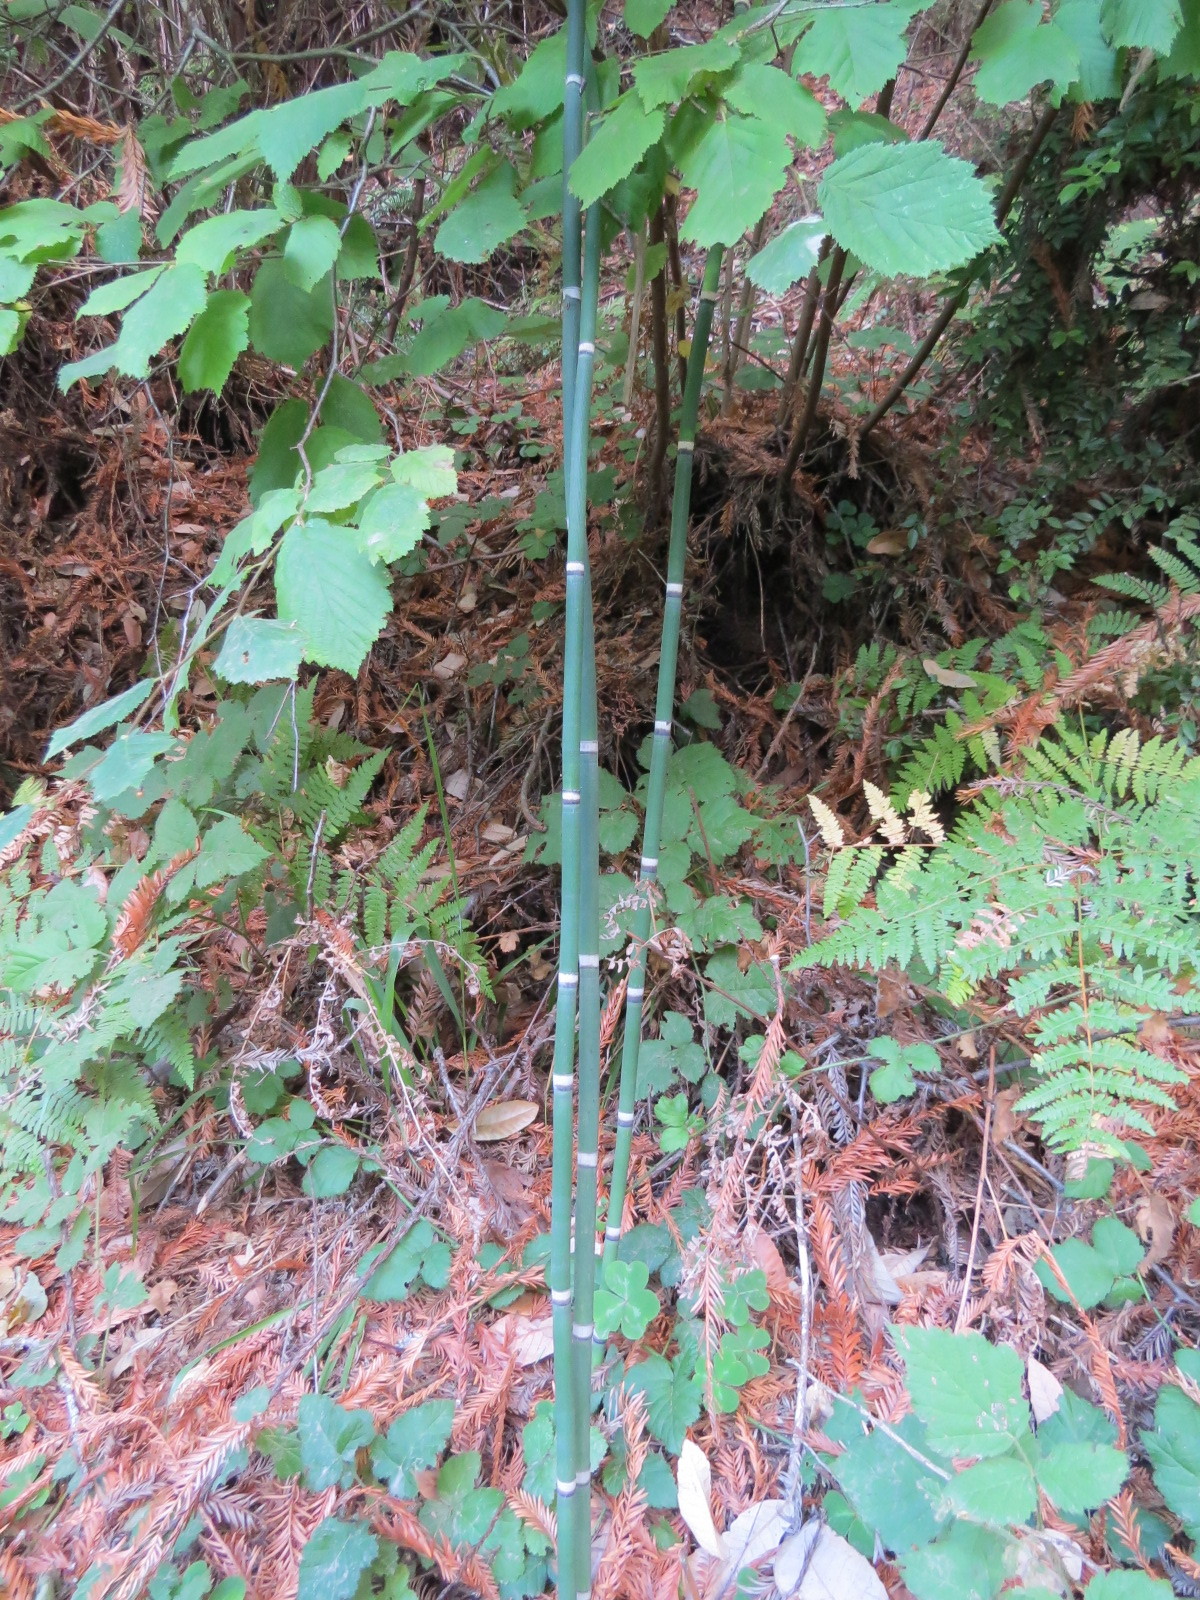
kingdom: Plantae
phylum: Tracheophyta
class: Polypodiopsida
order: Equisetales
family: Equisetaceae
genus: Equisetum
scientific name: Equisetum hyemale
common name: Rough horsetail
